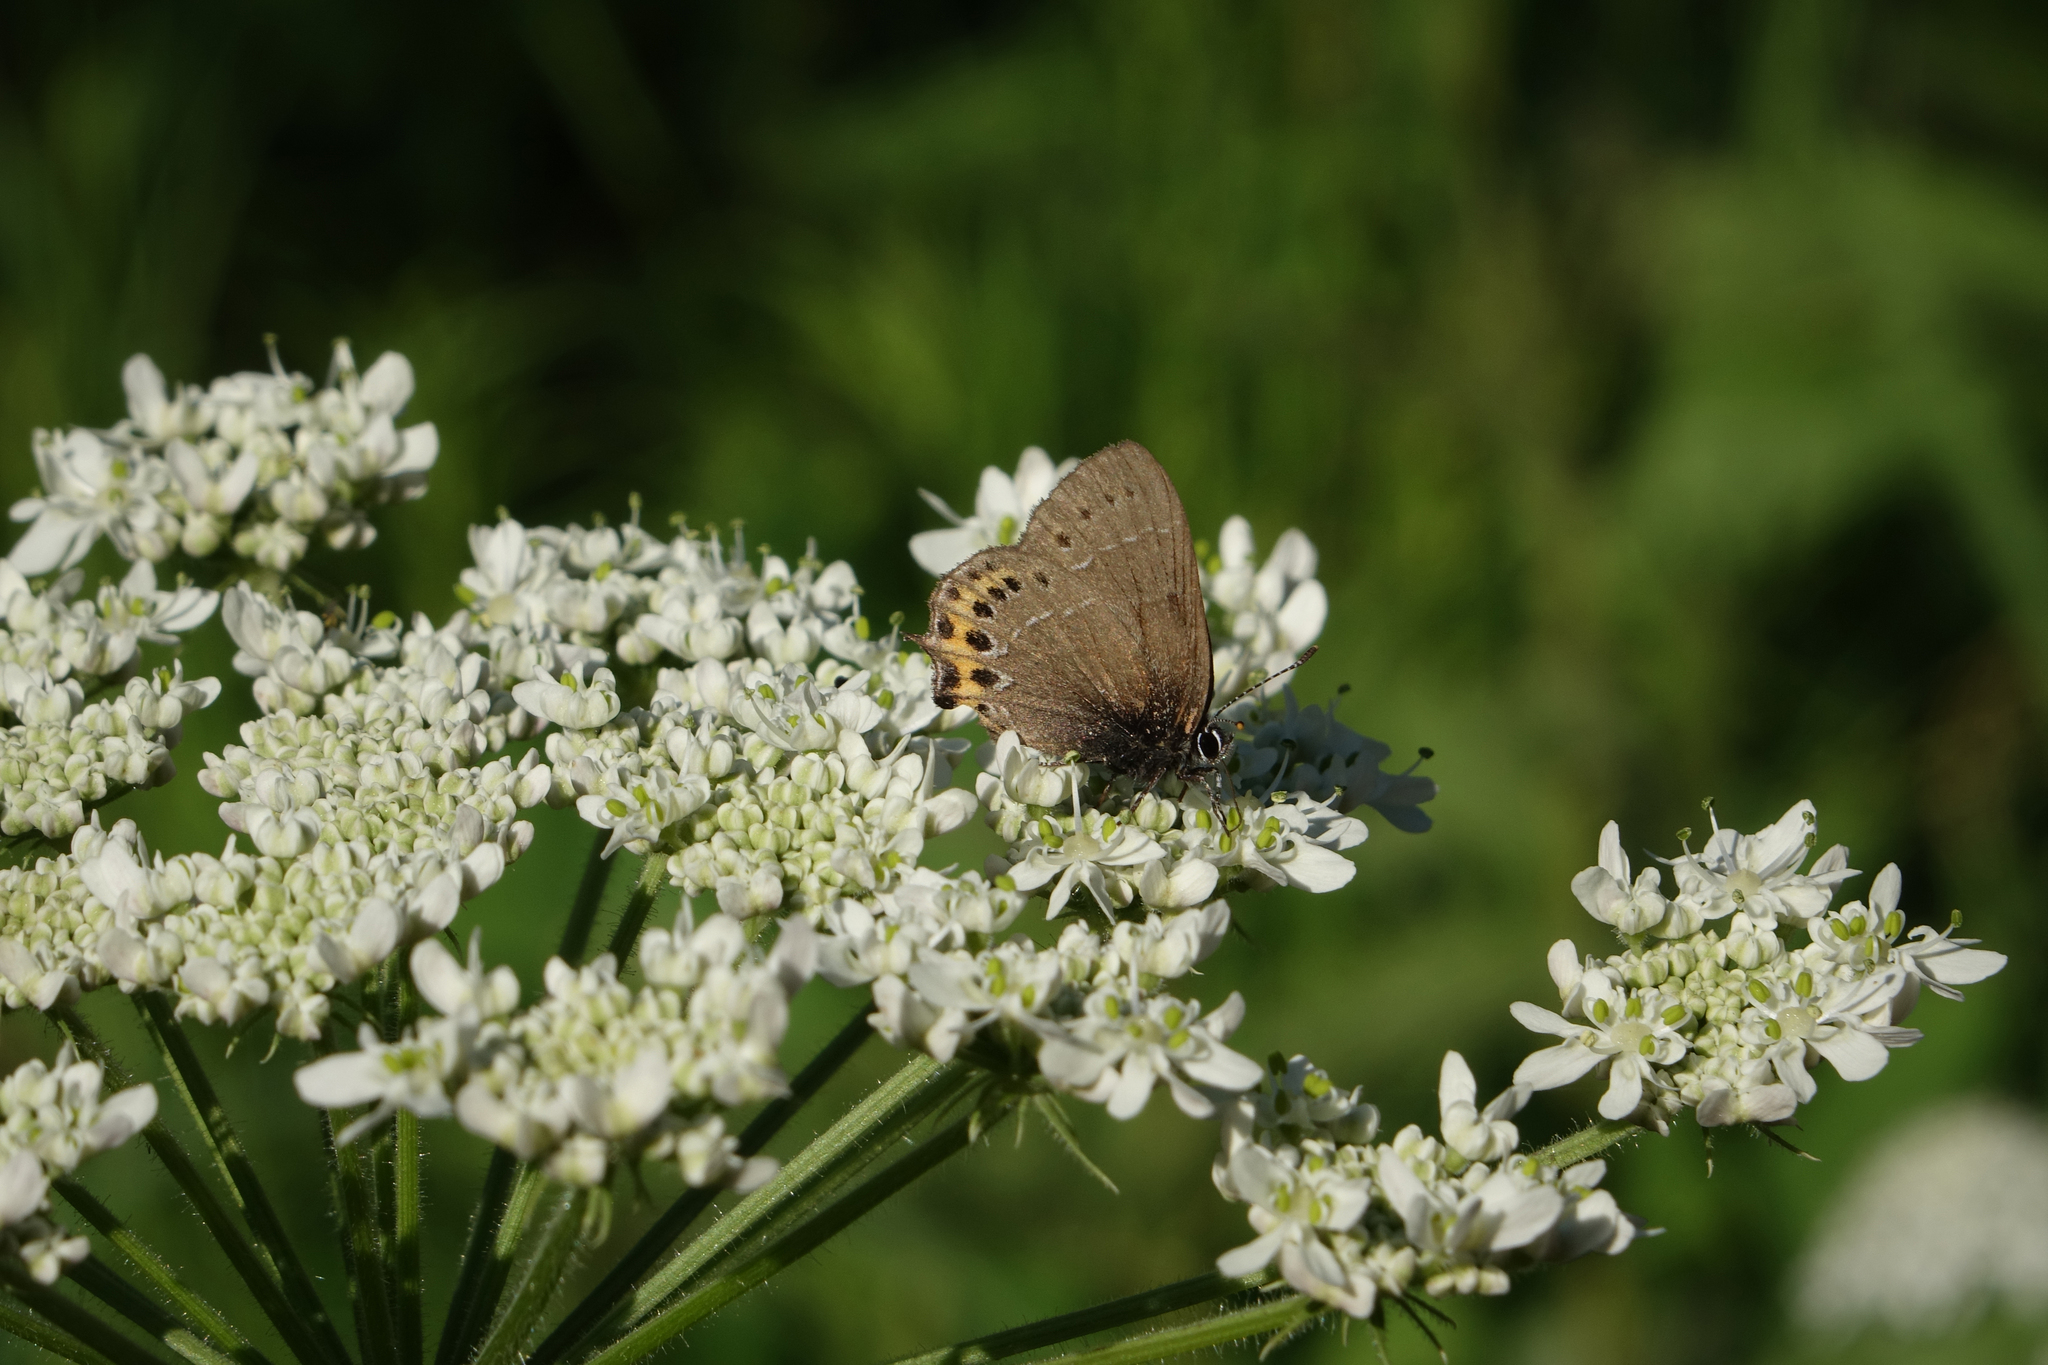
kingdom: Plantae
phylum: Tracheophyta
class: Magnoliopsida
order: Apiales
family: Apiaceae
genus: Heracleum
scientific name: Heracleum dissectum
